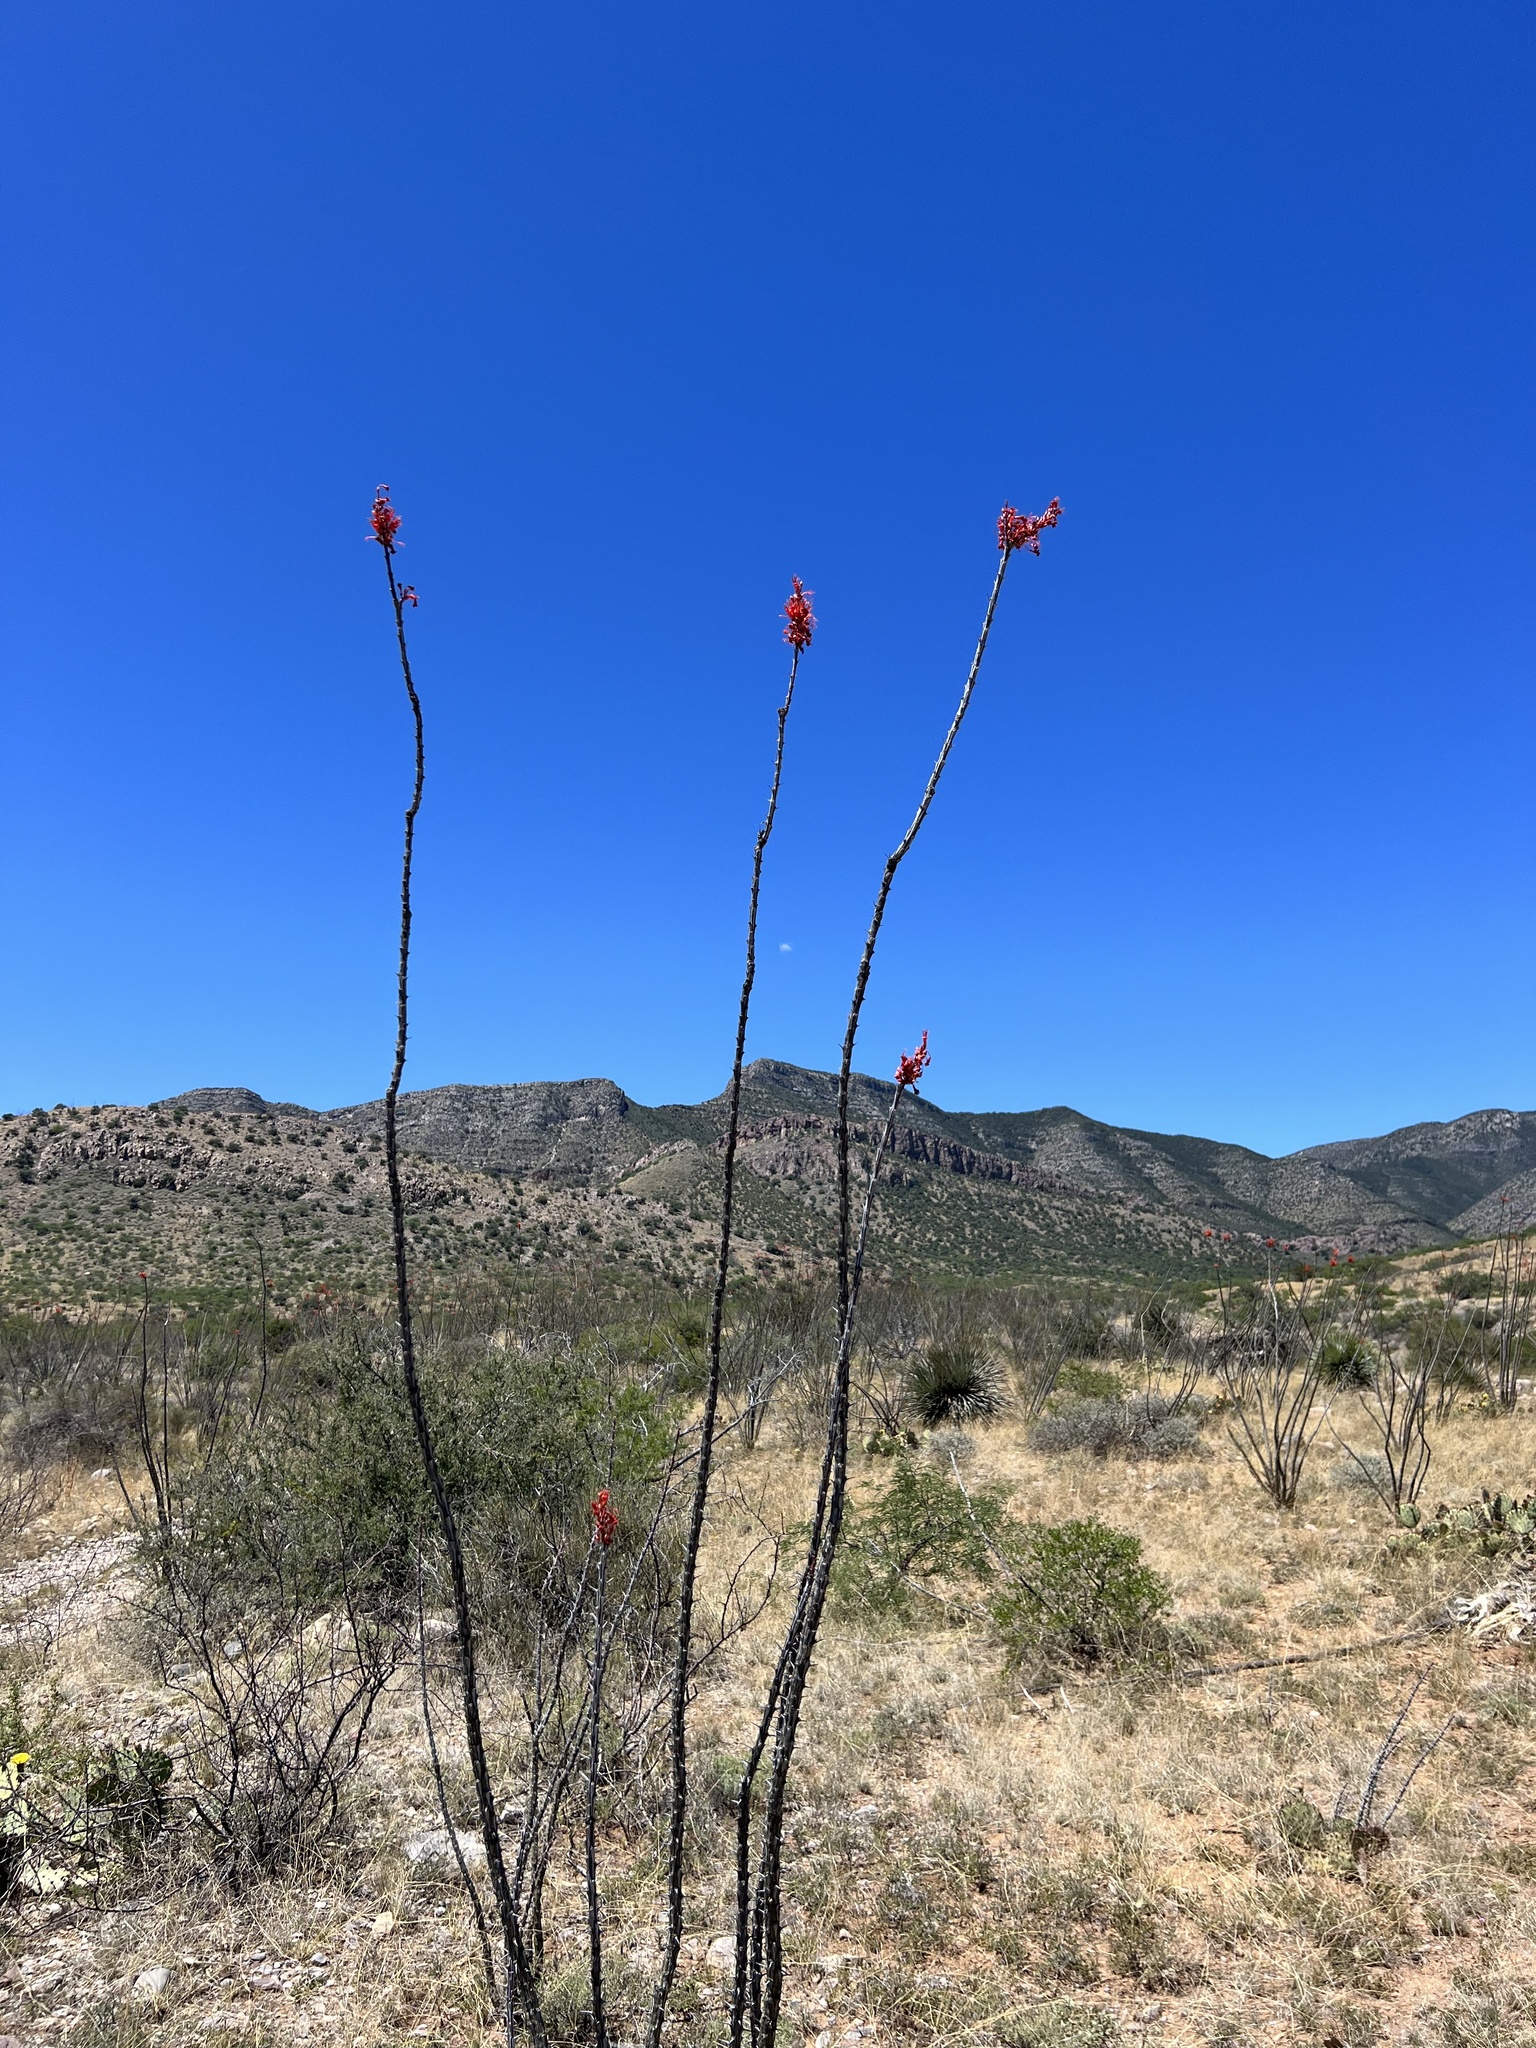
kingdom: Plantae
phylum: Tracheophyta
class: Magnoliopsida
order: Ericales
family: Fouquieriaceae
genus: Fouquieria
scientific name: Fouquieria splendens
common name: Vine-cactus
